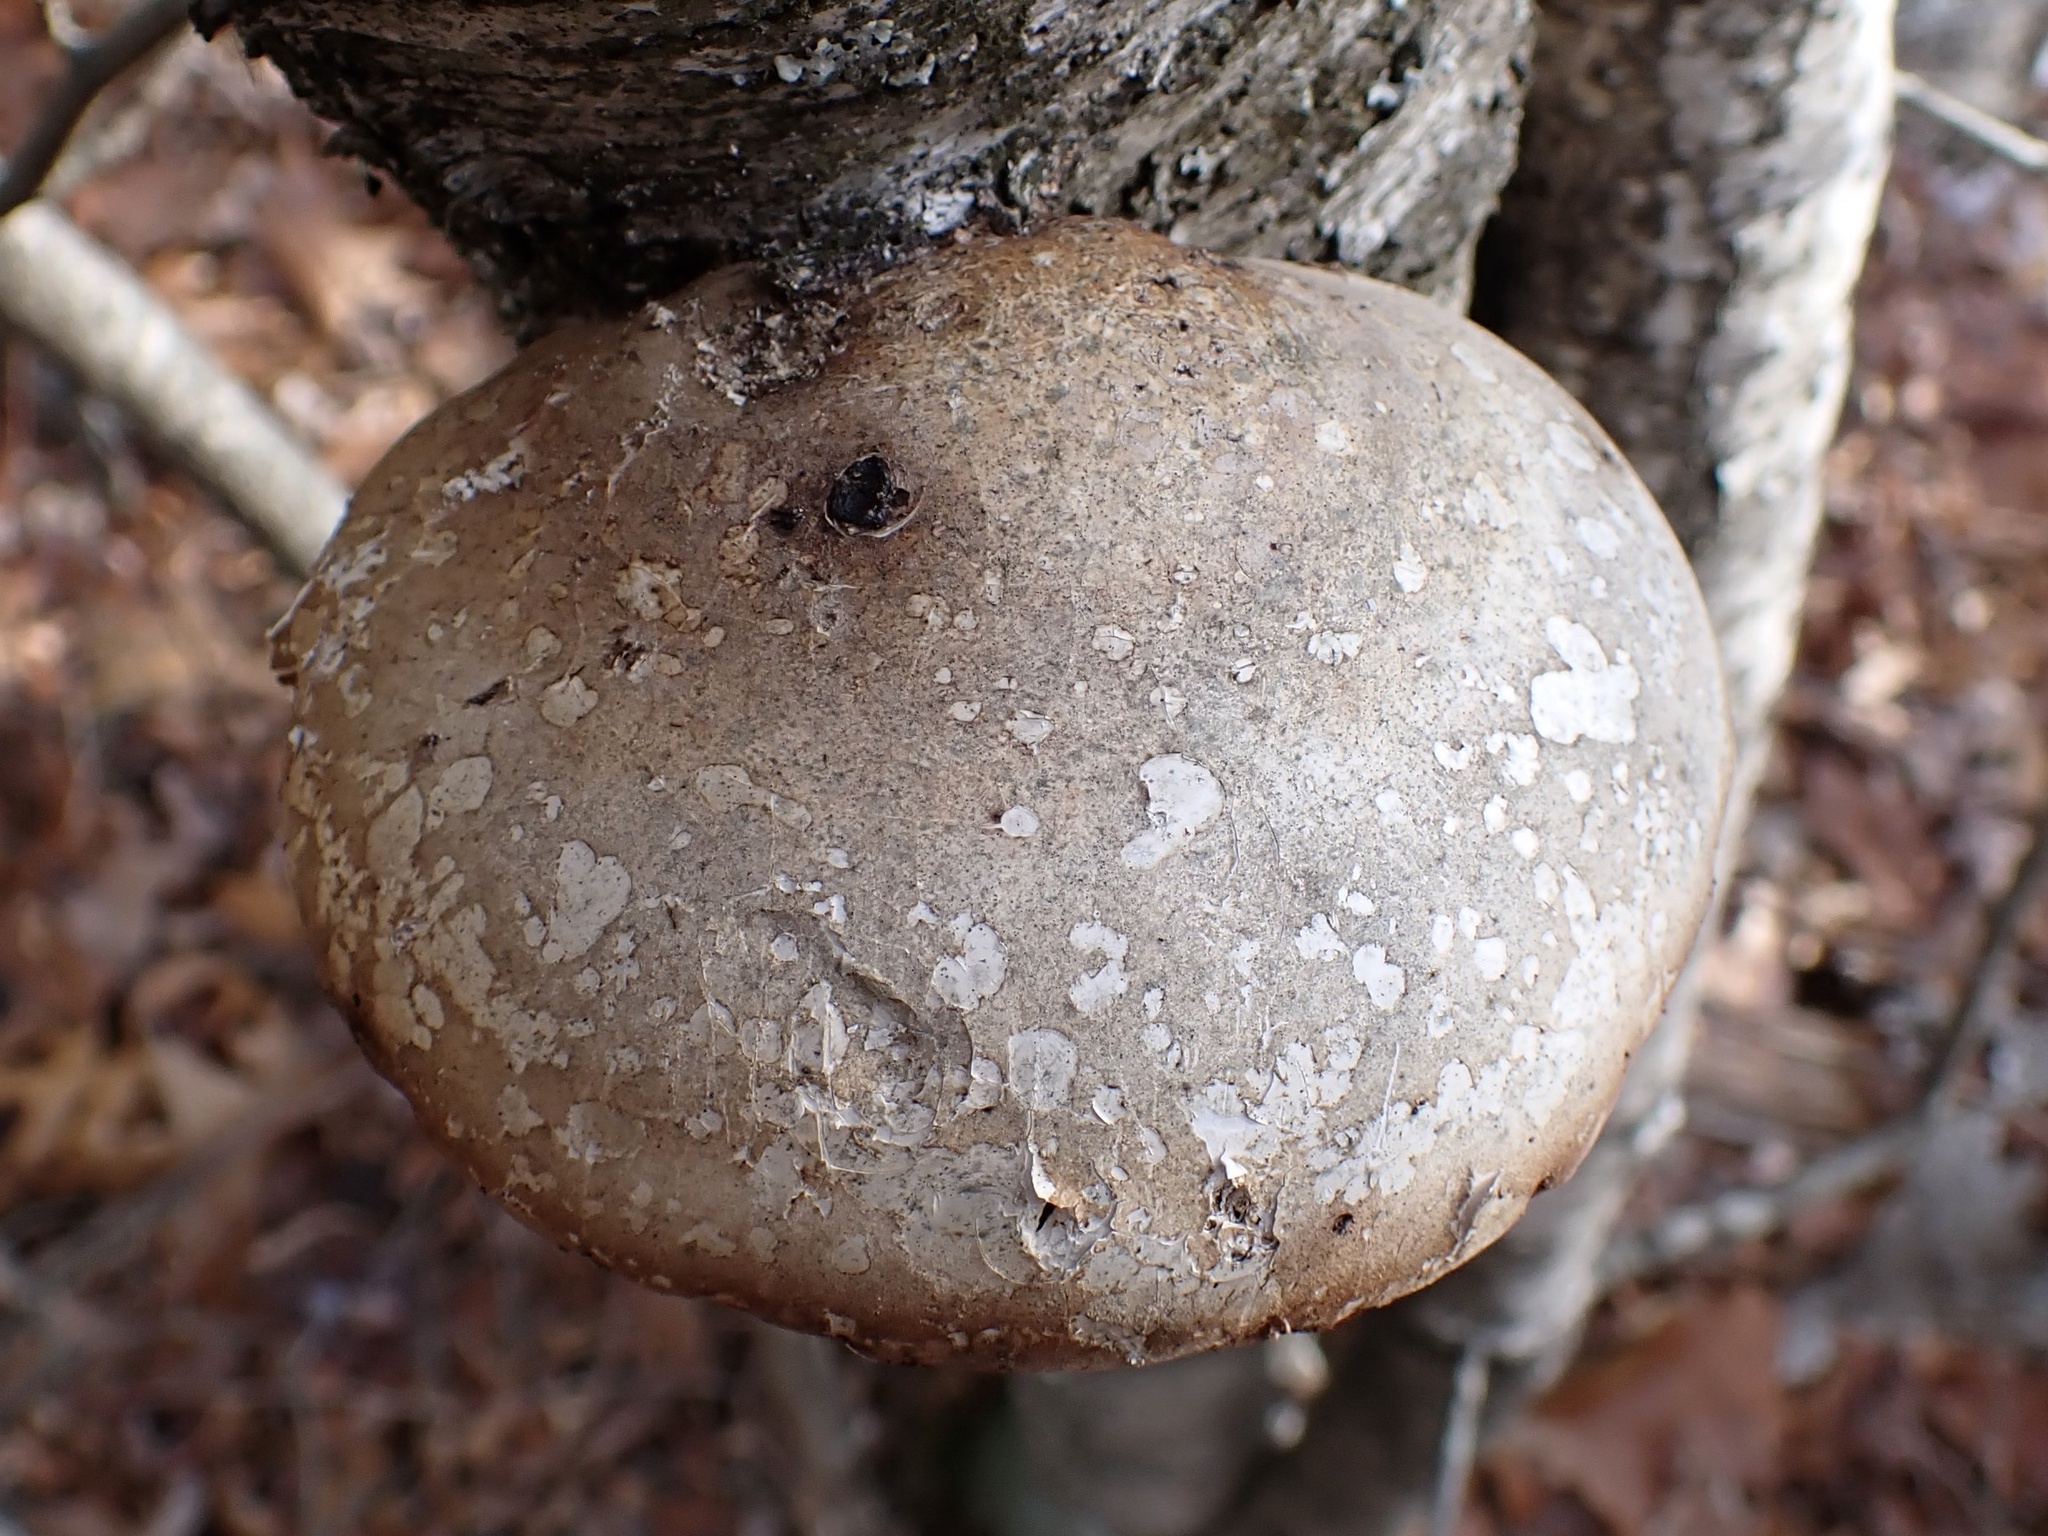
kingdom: Fungi
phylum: Basidiomycota
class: Agaricomycetes
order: Polyporales
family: Fomitopsidaceae
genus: Fomitopsis
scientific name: Fomitopsis betulina
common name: Birch polypore
